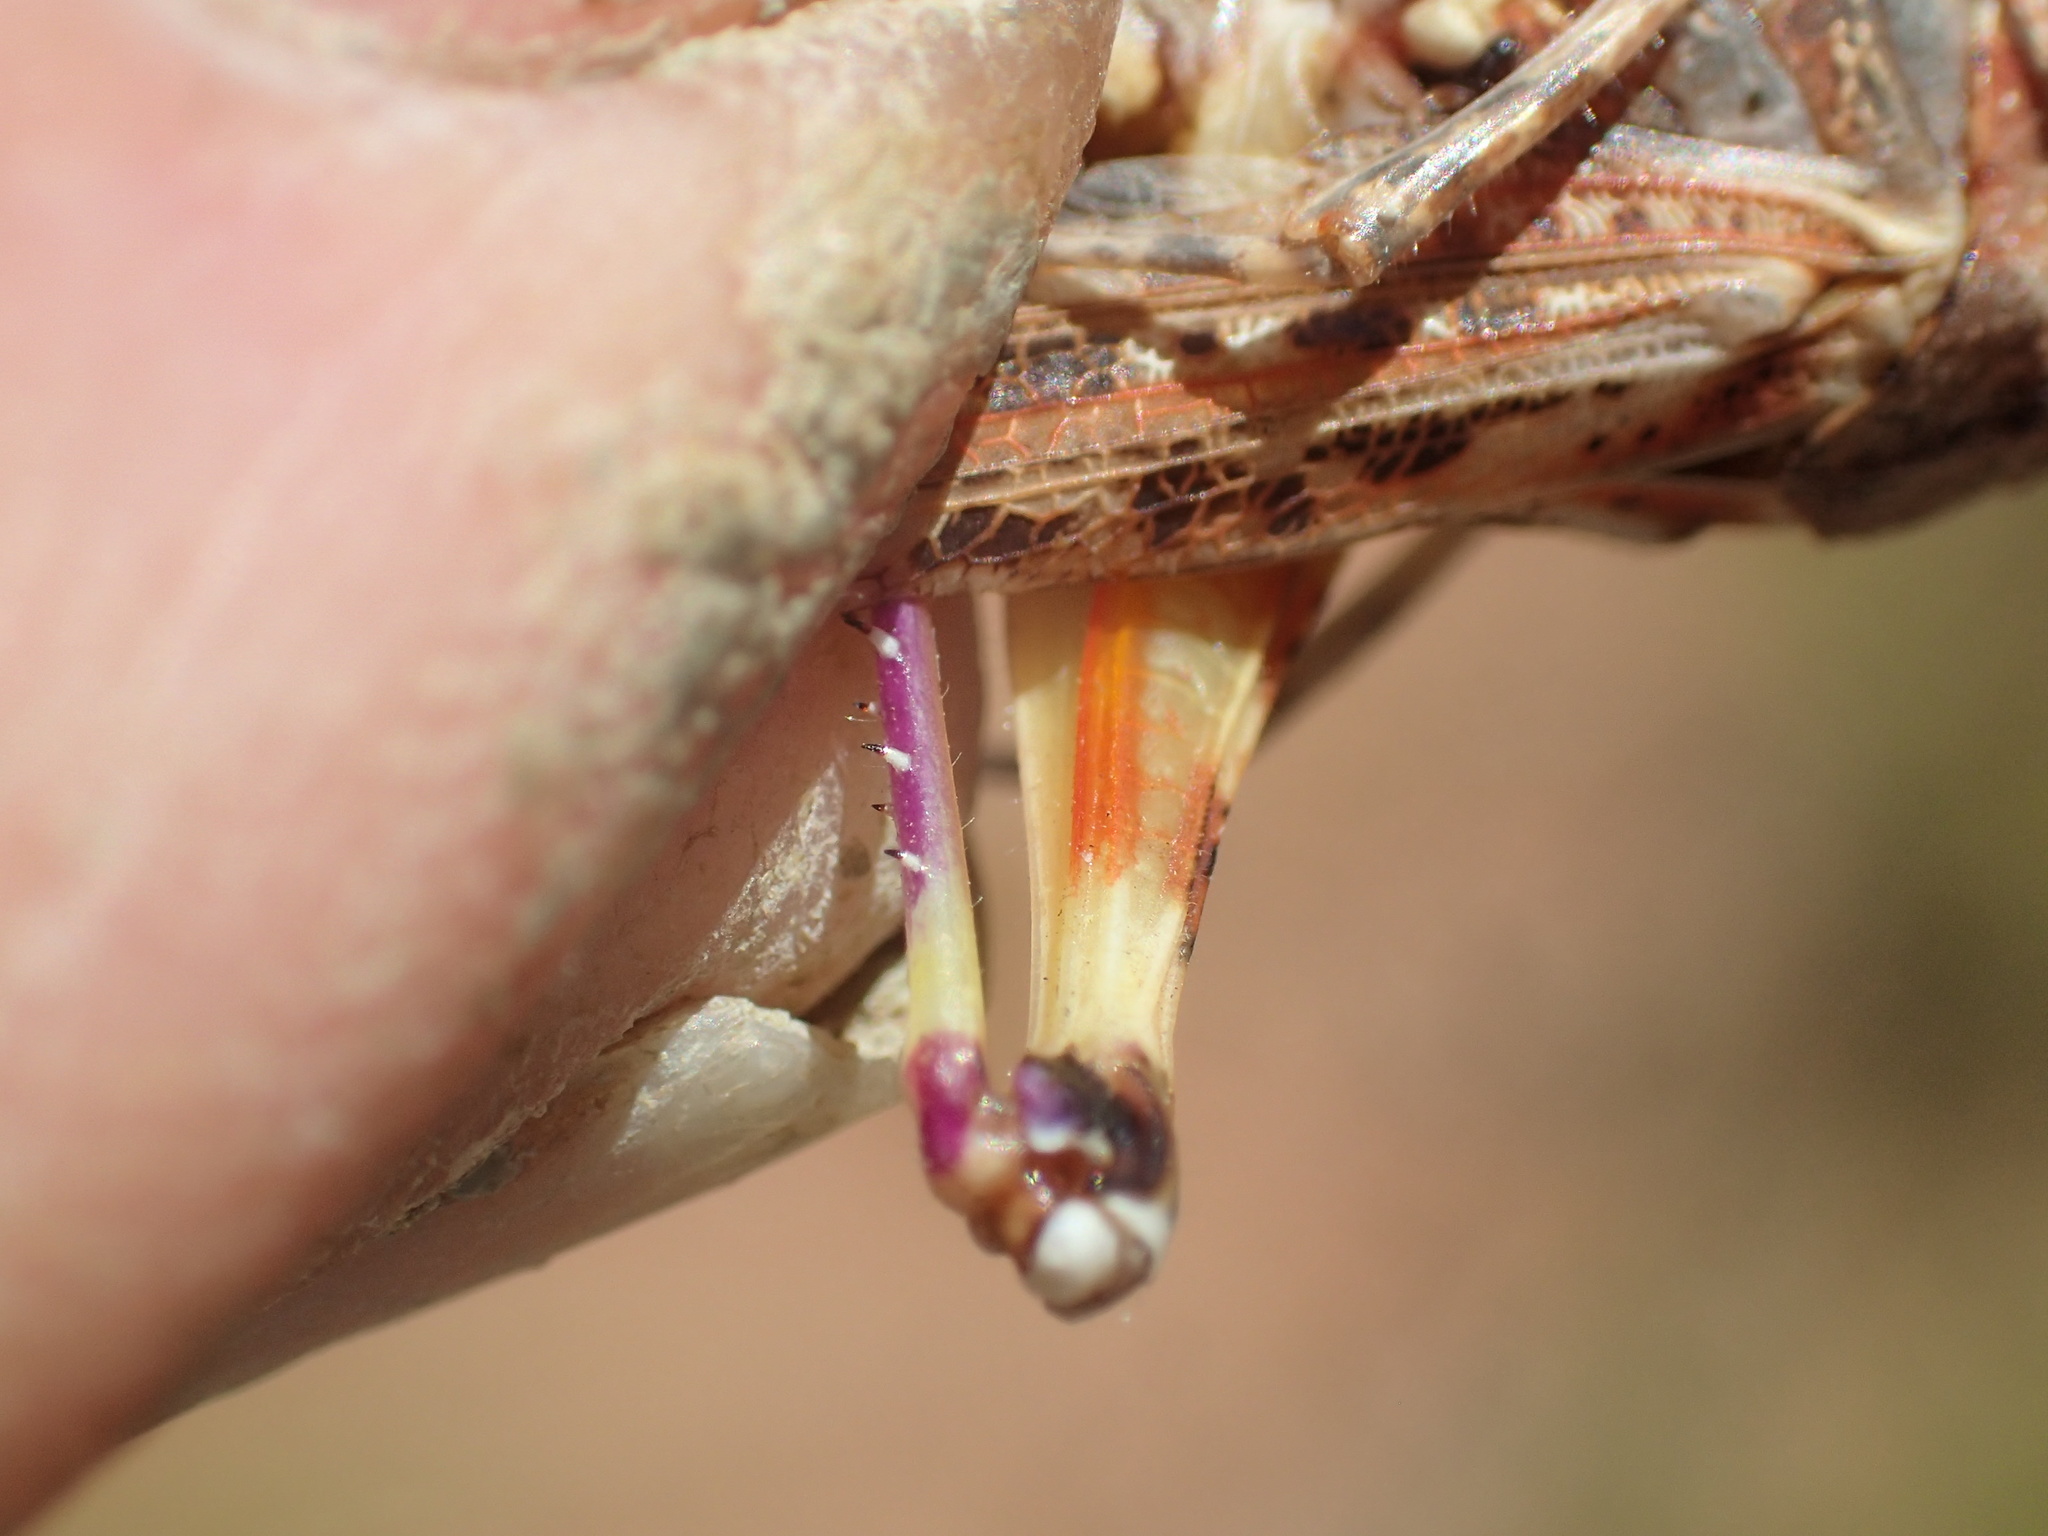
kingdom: Animalia
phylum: Arthropoda
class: Insecta
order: Orthoptera
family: Acrididae
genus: Urnisa
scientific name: Urnisa guttulosa
